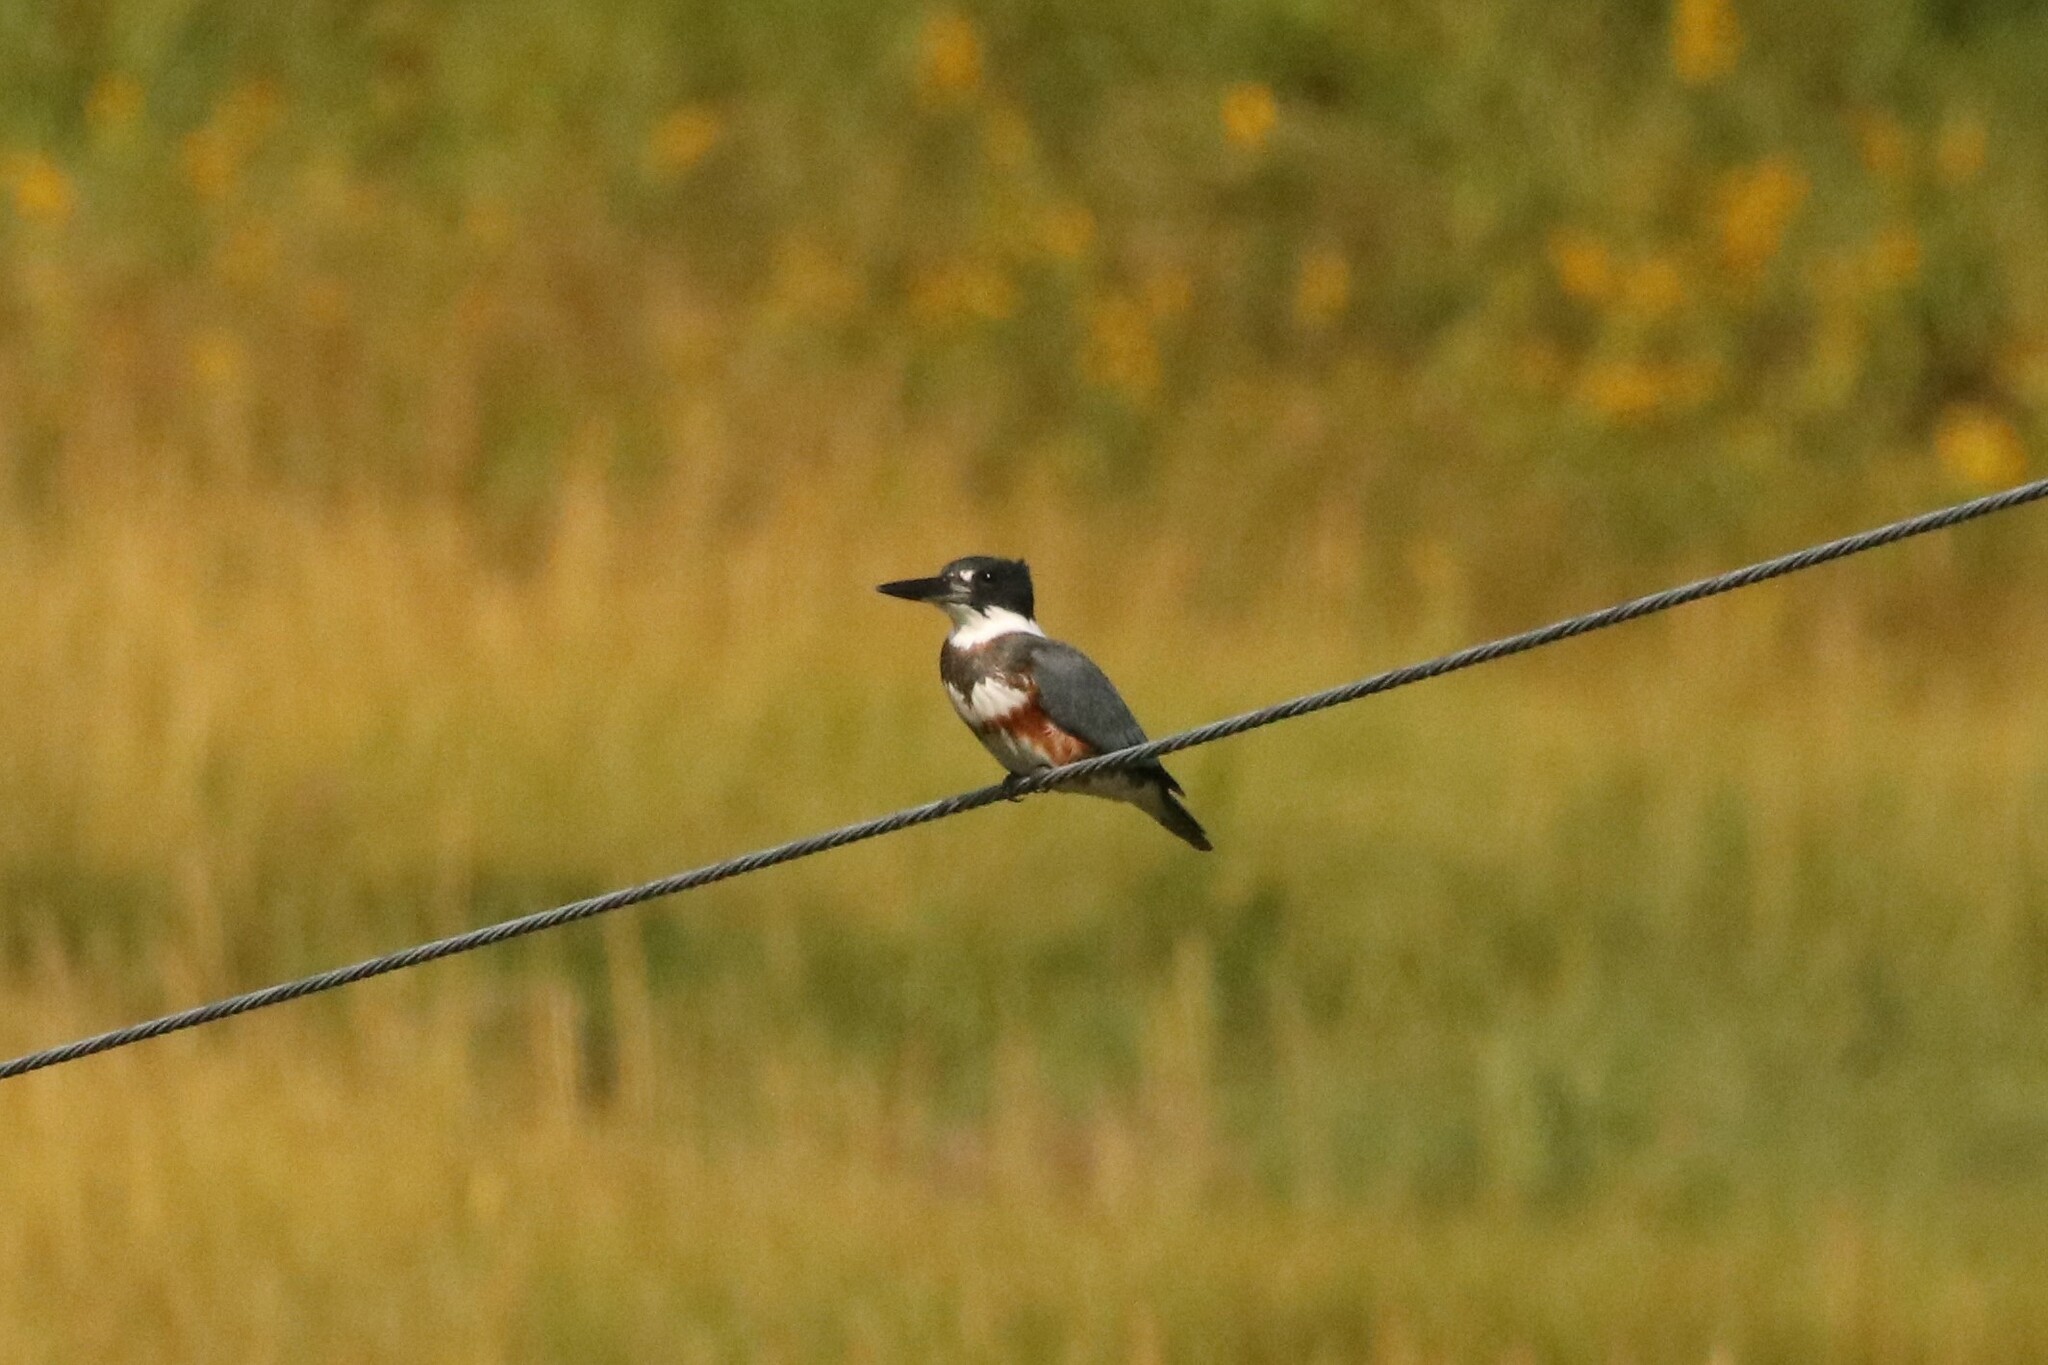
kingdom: Animalia
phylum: Chordata
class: Aves
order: Coraciiformes
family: Alcedinidae
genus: Megaceryle
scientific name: Megaceryle alcyon
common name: Belted kingfisher
